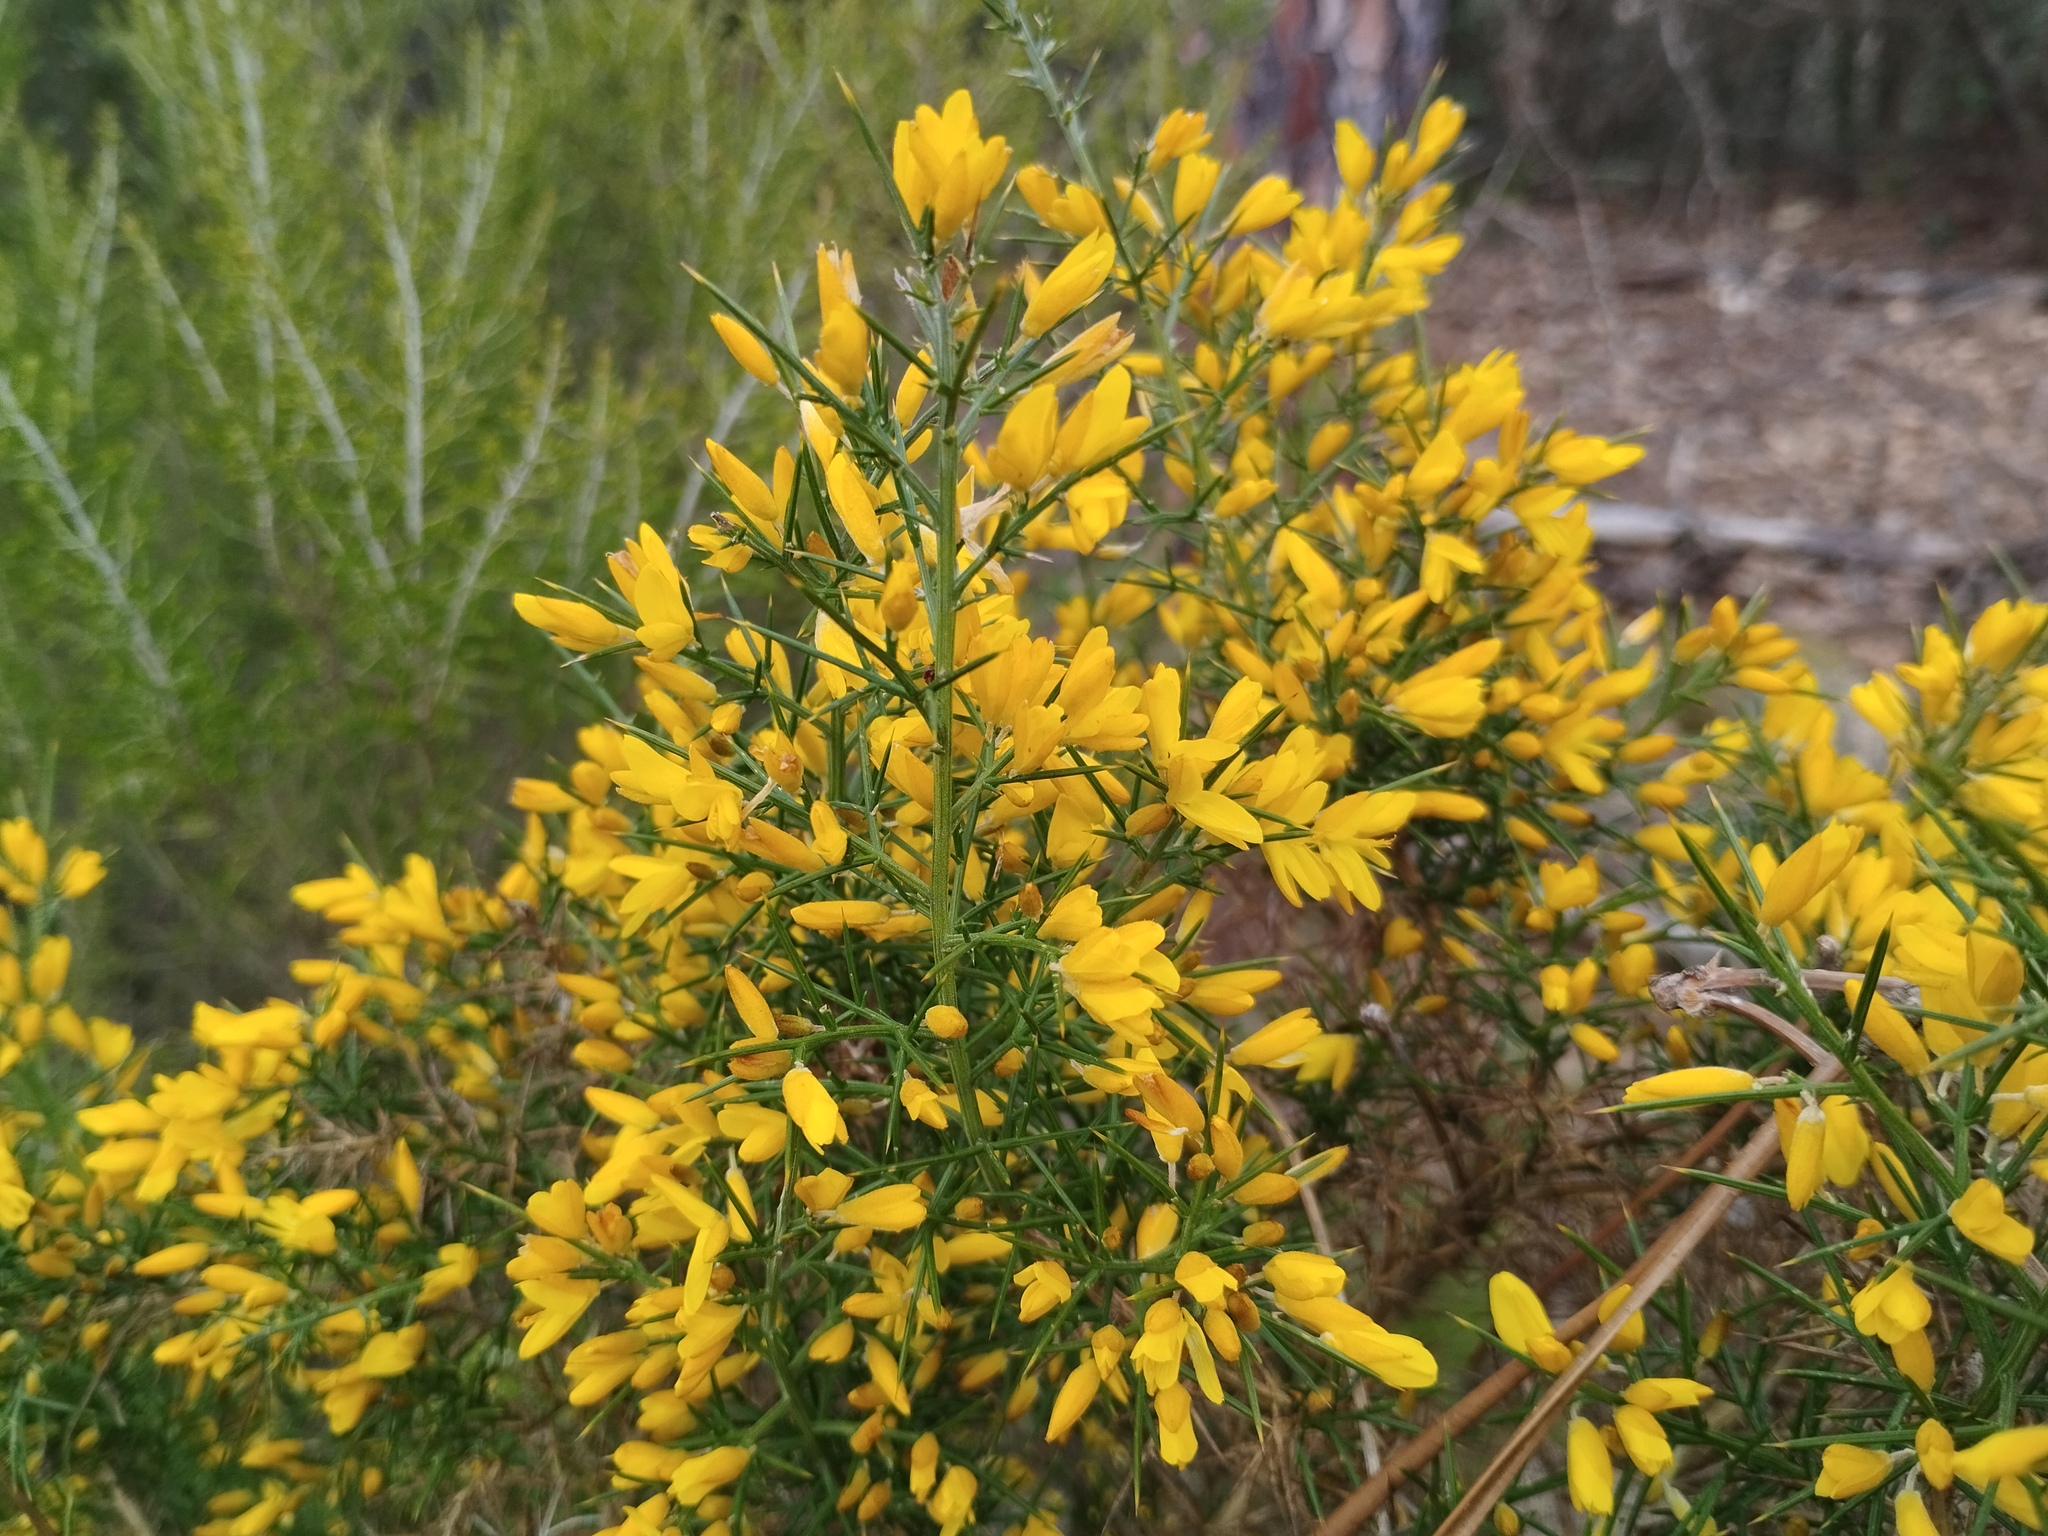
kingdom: Plantae
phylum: Tracheophyta
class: Magnoliopsida
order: Fabales
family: Fabaceae
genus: Ulex
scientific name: Ulex parviflorus
